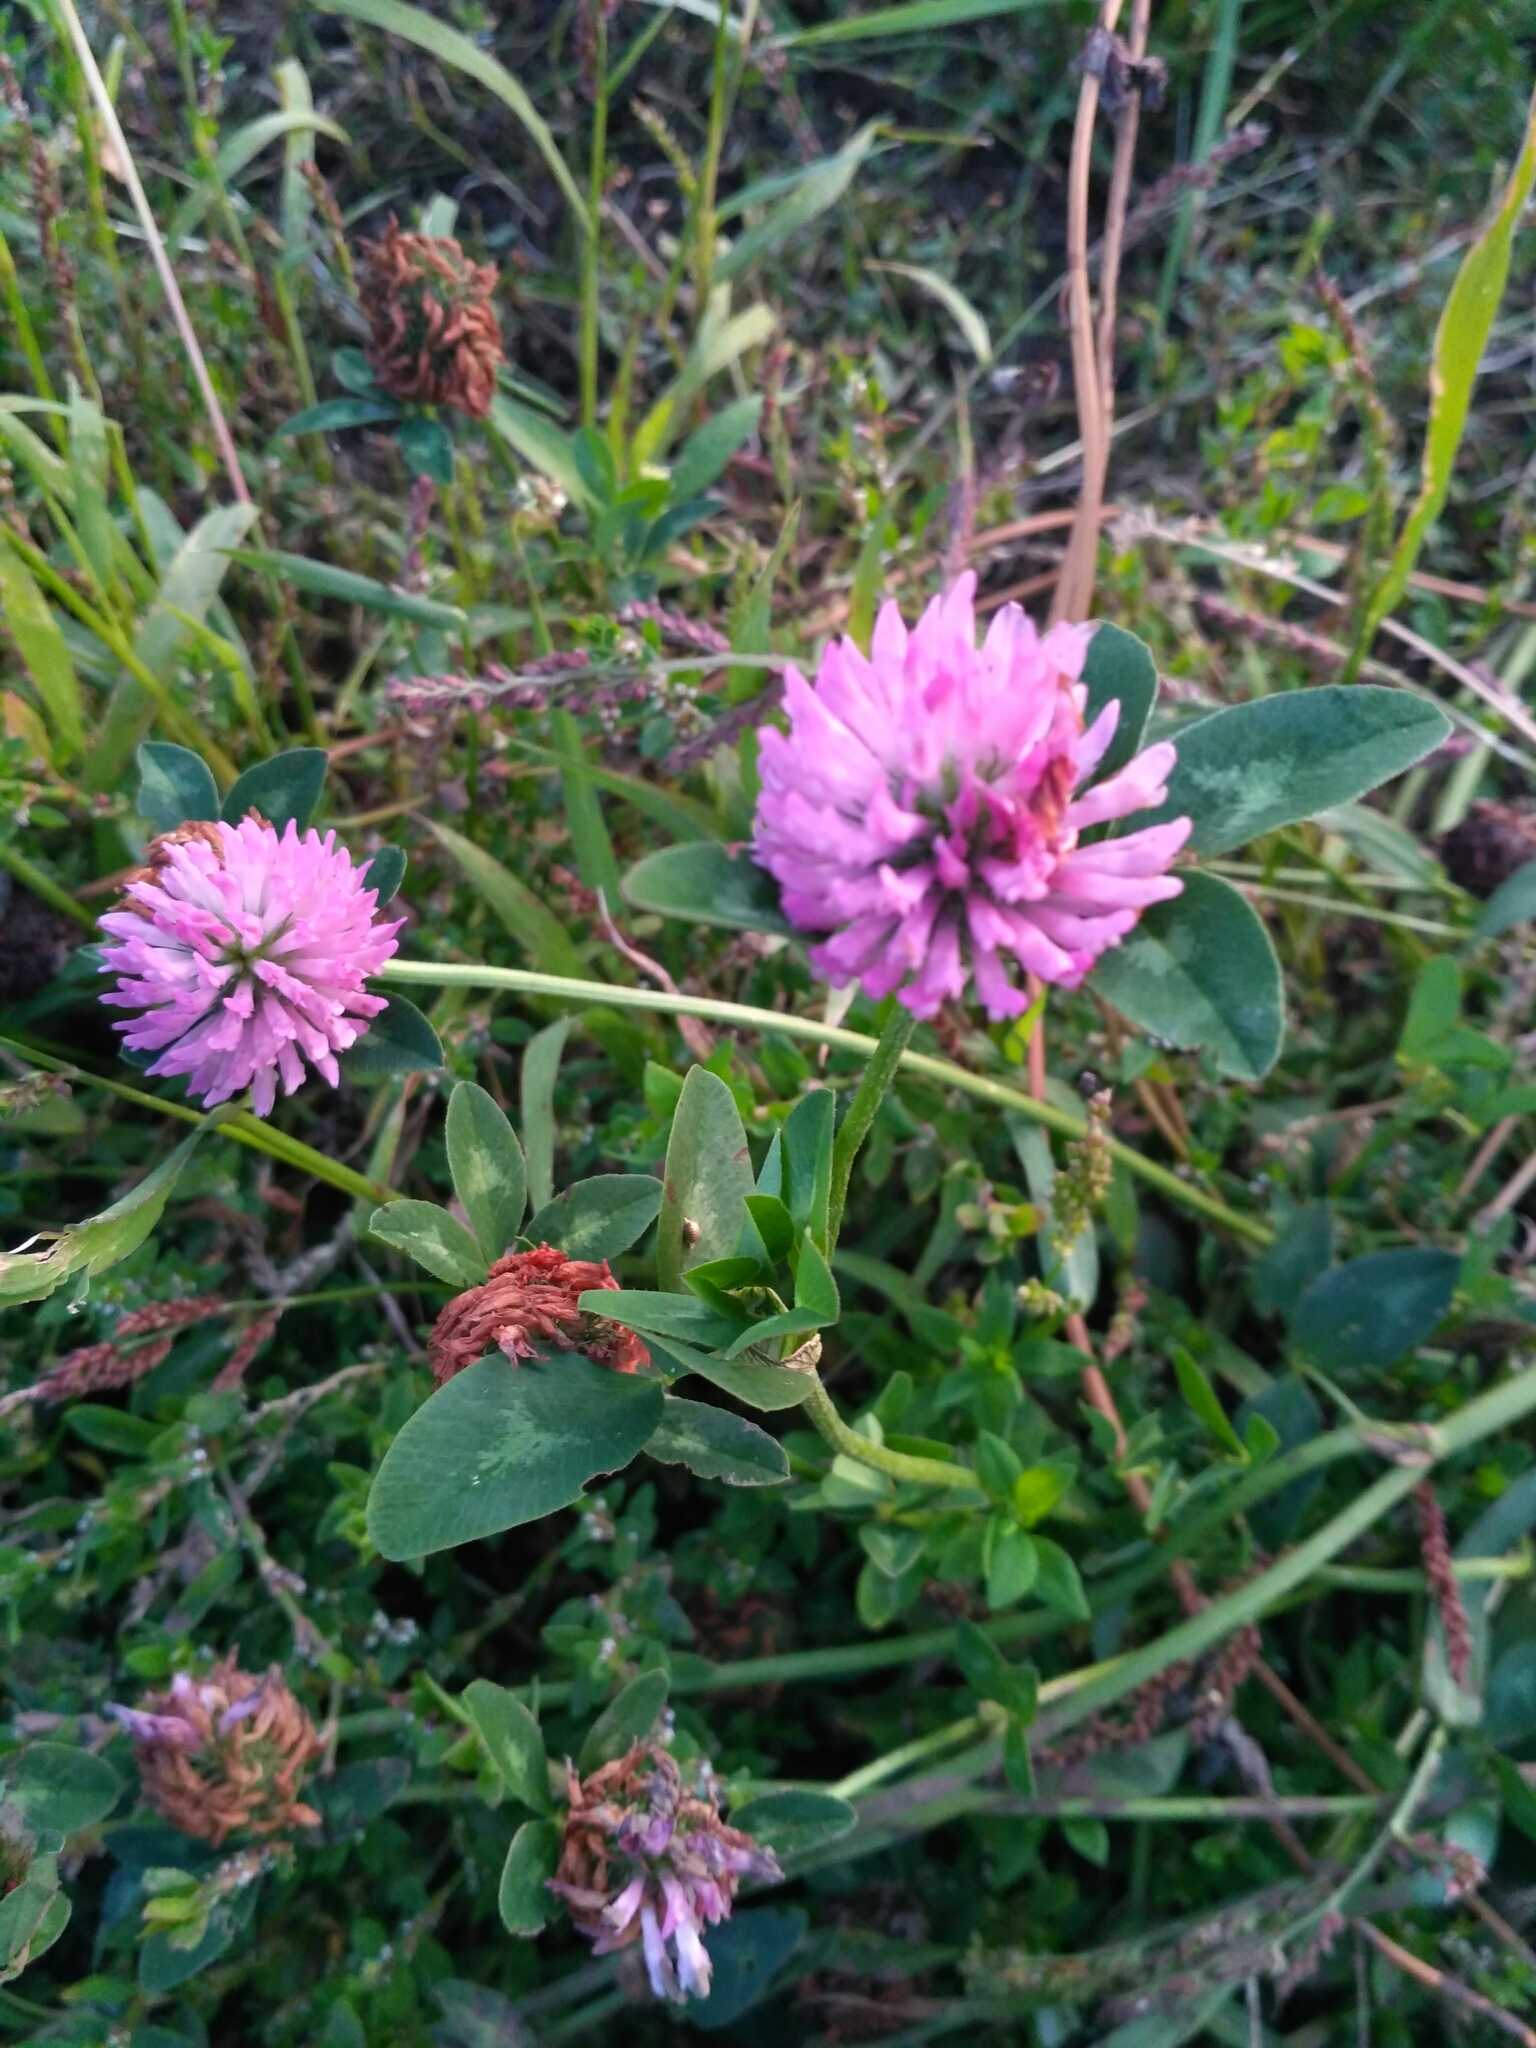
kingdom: Plantae
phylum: Tracheophyta
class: Magnoliopsida
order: Fabales
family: Fabaceae
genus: Trifolium
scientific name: Trifolium pratense
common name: Red clover
